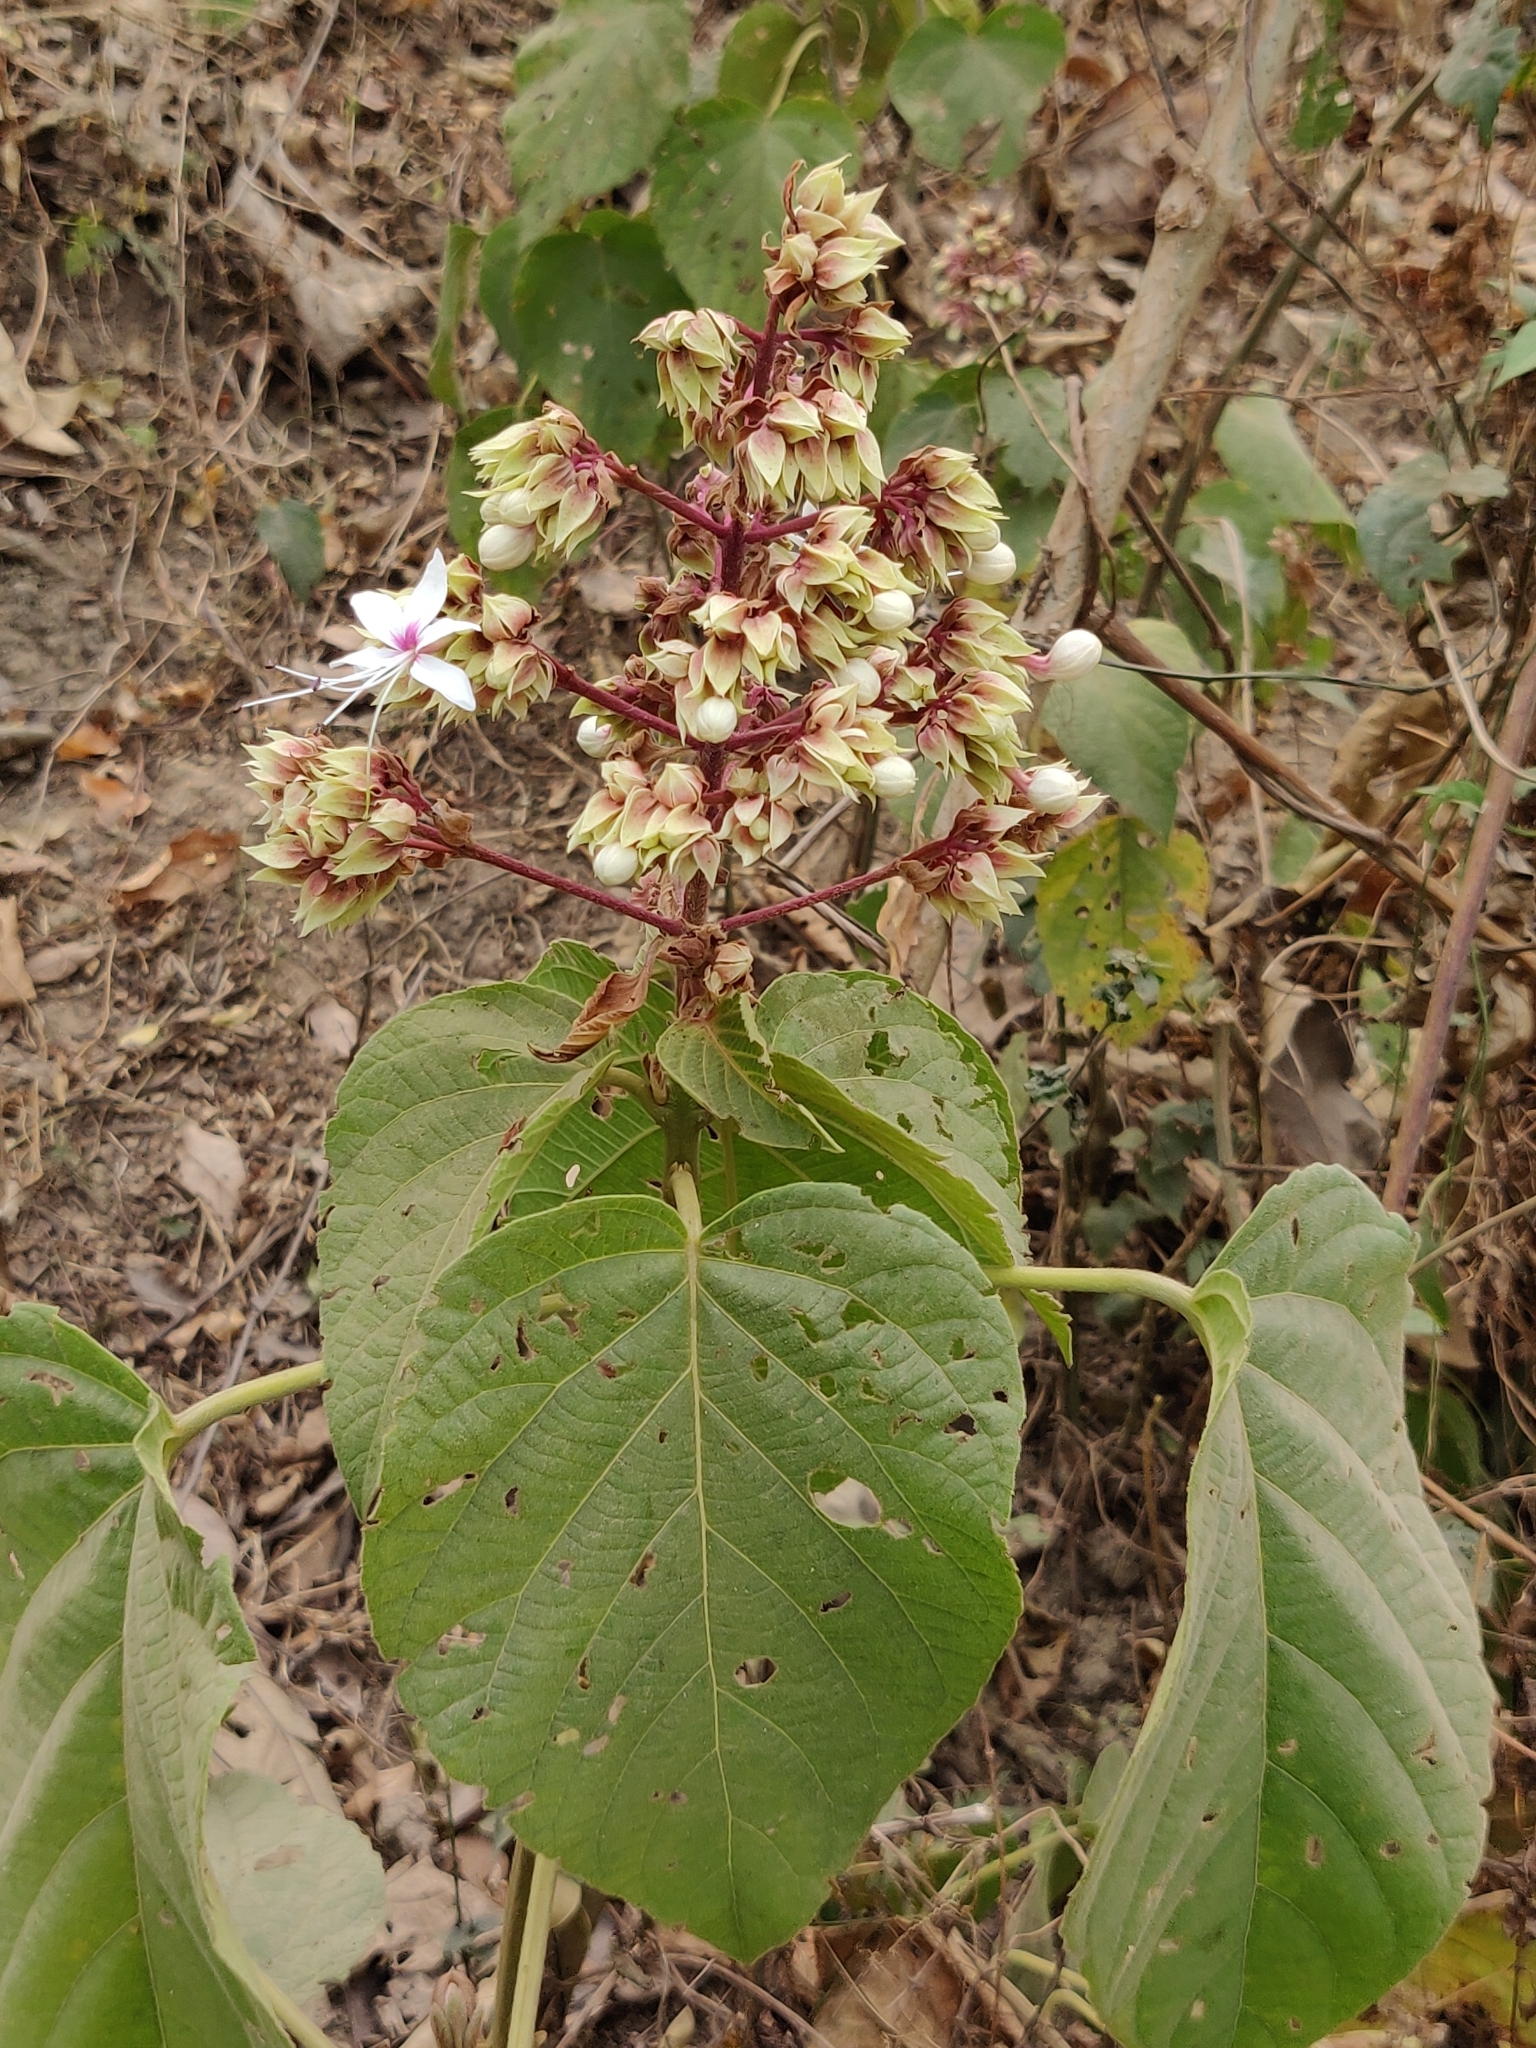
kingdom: Plantae
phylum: Tracheophyta
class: Magnoliopsida
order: Lamiales
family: Lamiaceae
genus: Clerodendrum
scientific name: Clerodendrum infortunatum
